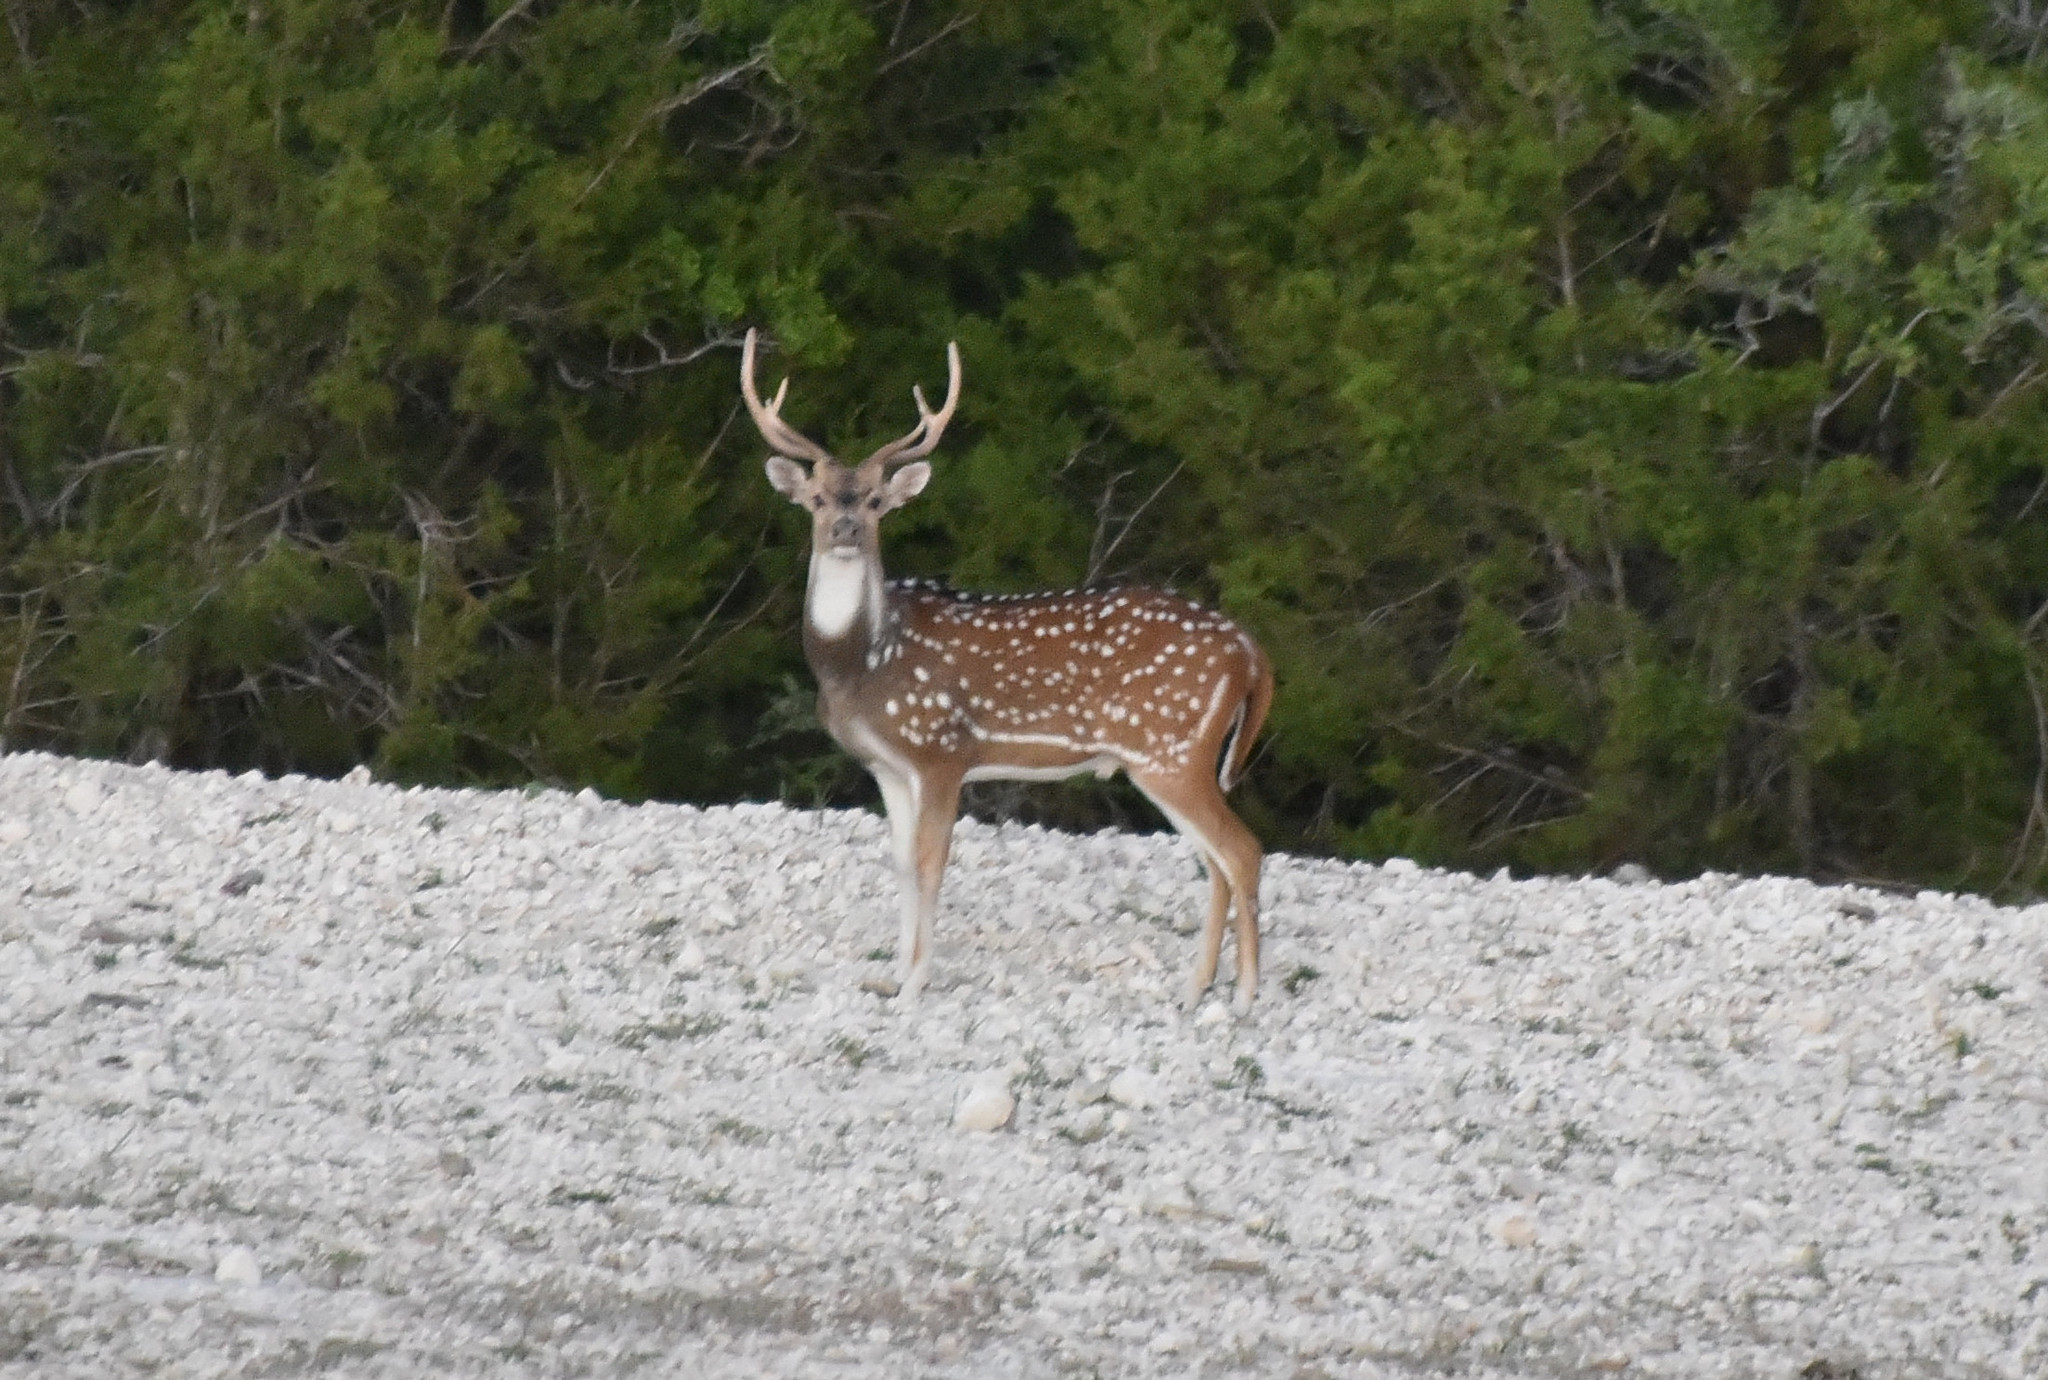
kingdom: Animalia
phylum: Chordata
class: Mammalia
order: Artiodactyla
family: Cervidae
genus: Axis
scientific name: Axis axis
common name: Chital
